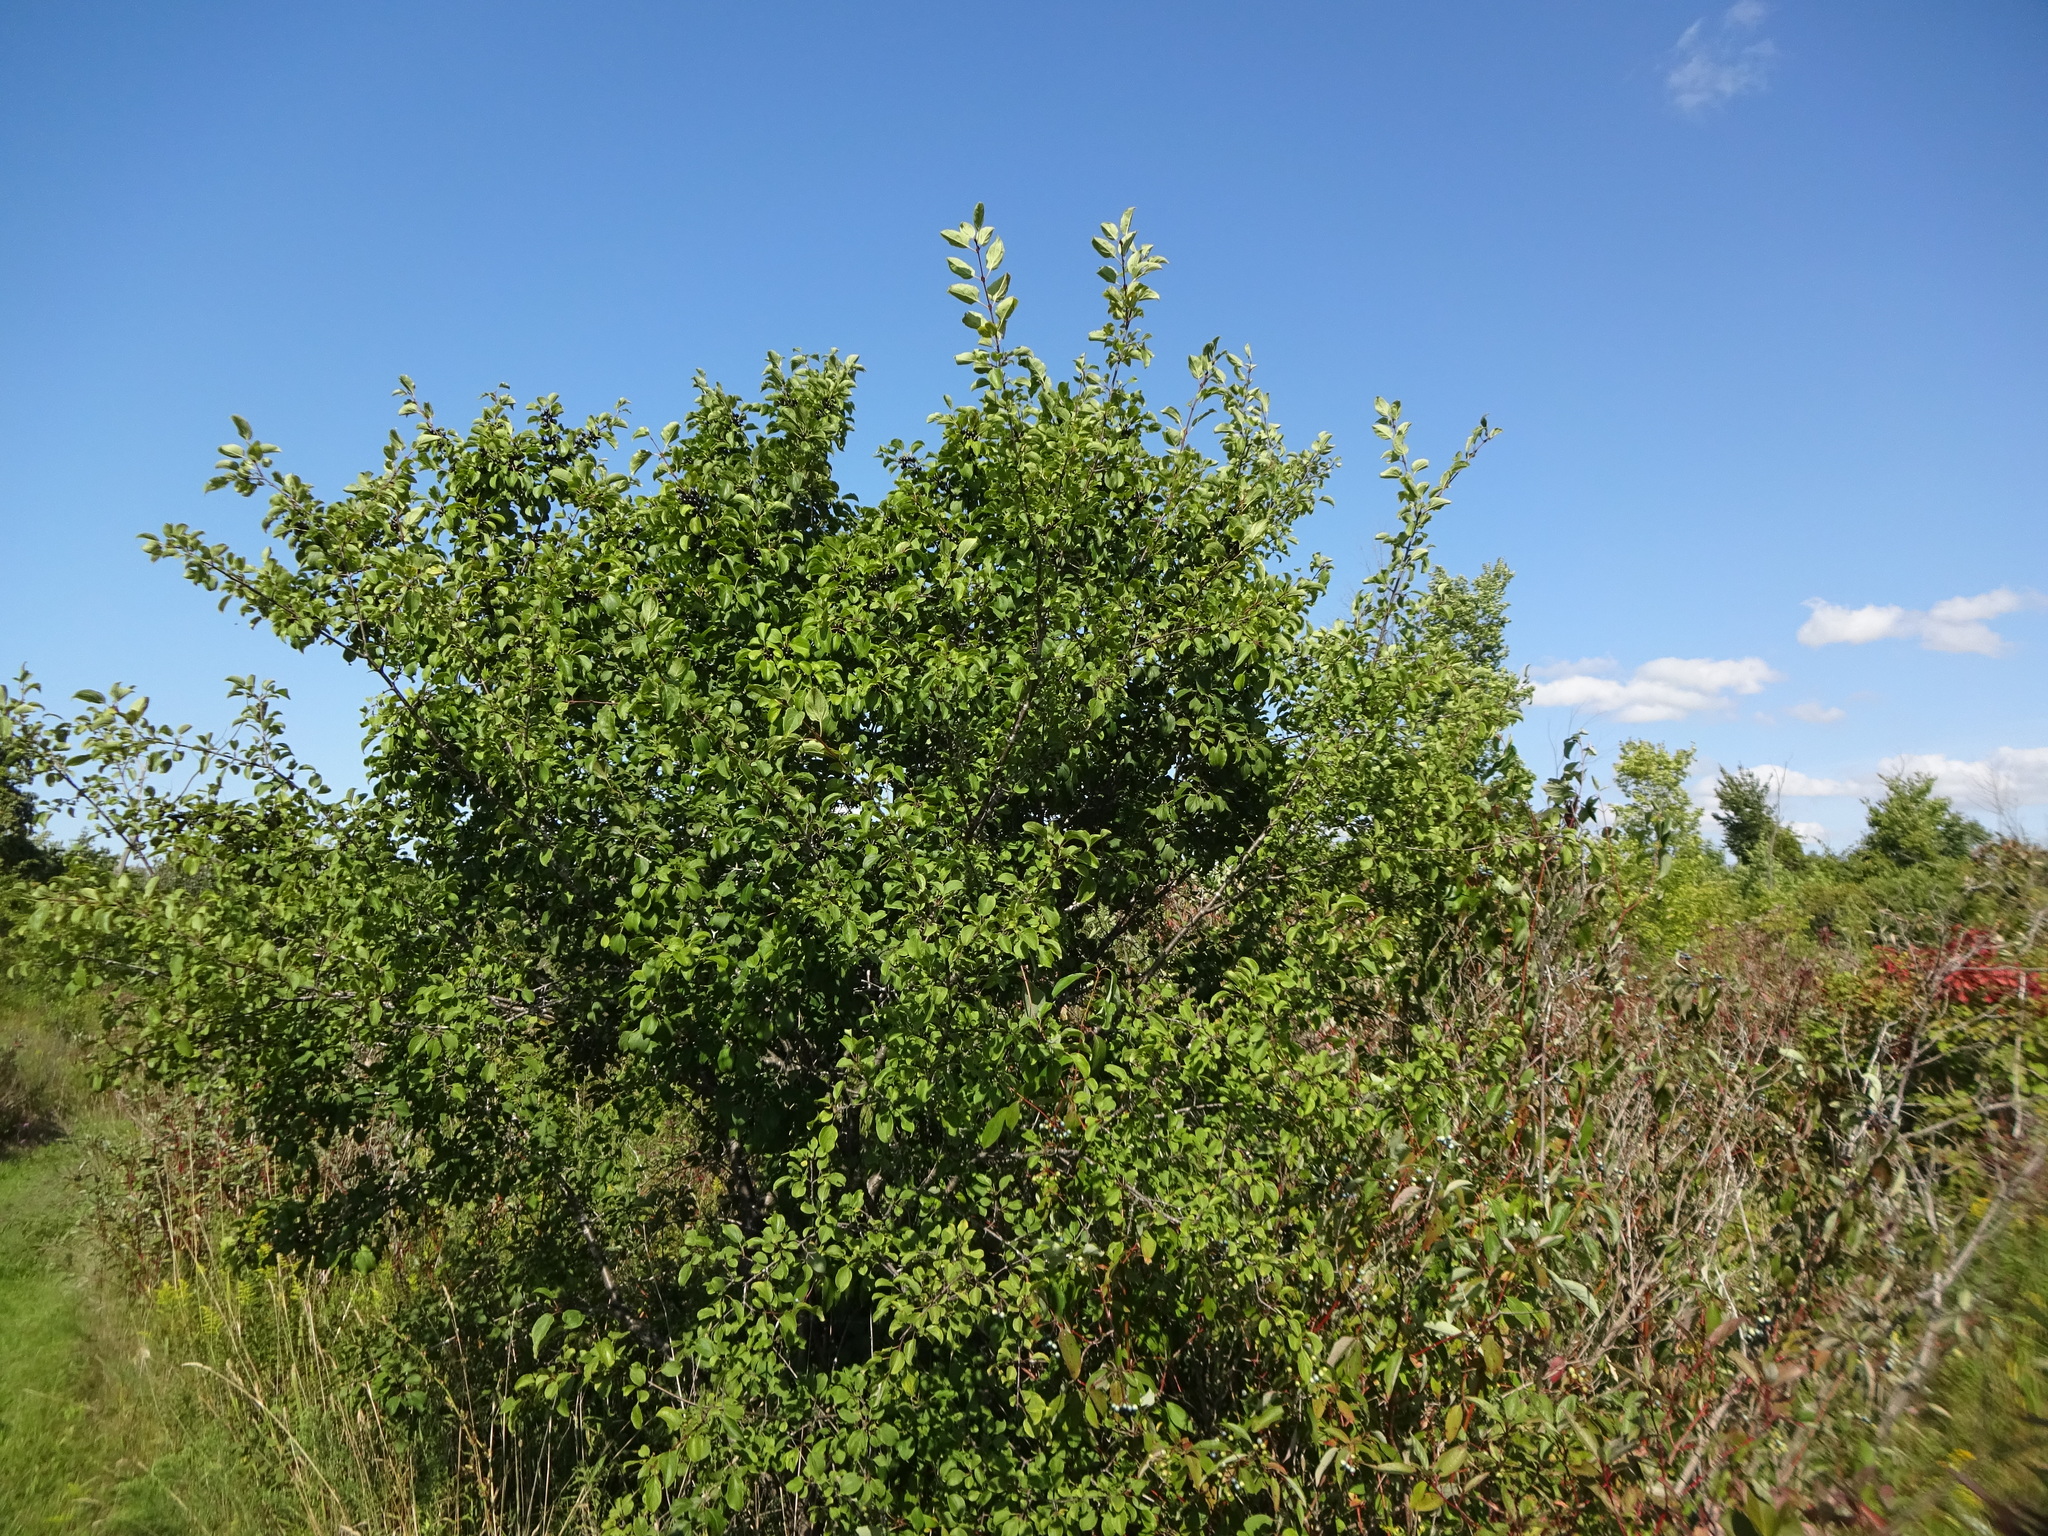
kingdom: Plantae
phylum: Tracheophyta
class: Magnoliopsida
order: Rosales
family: Rhamnaceae
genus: Rhamnus
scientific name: Rhamnus cathartica
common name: Common buckthorn
